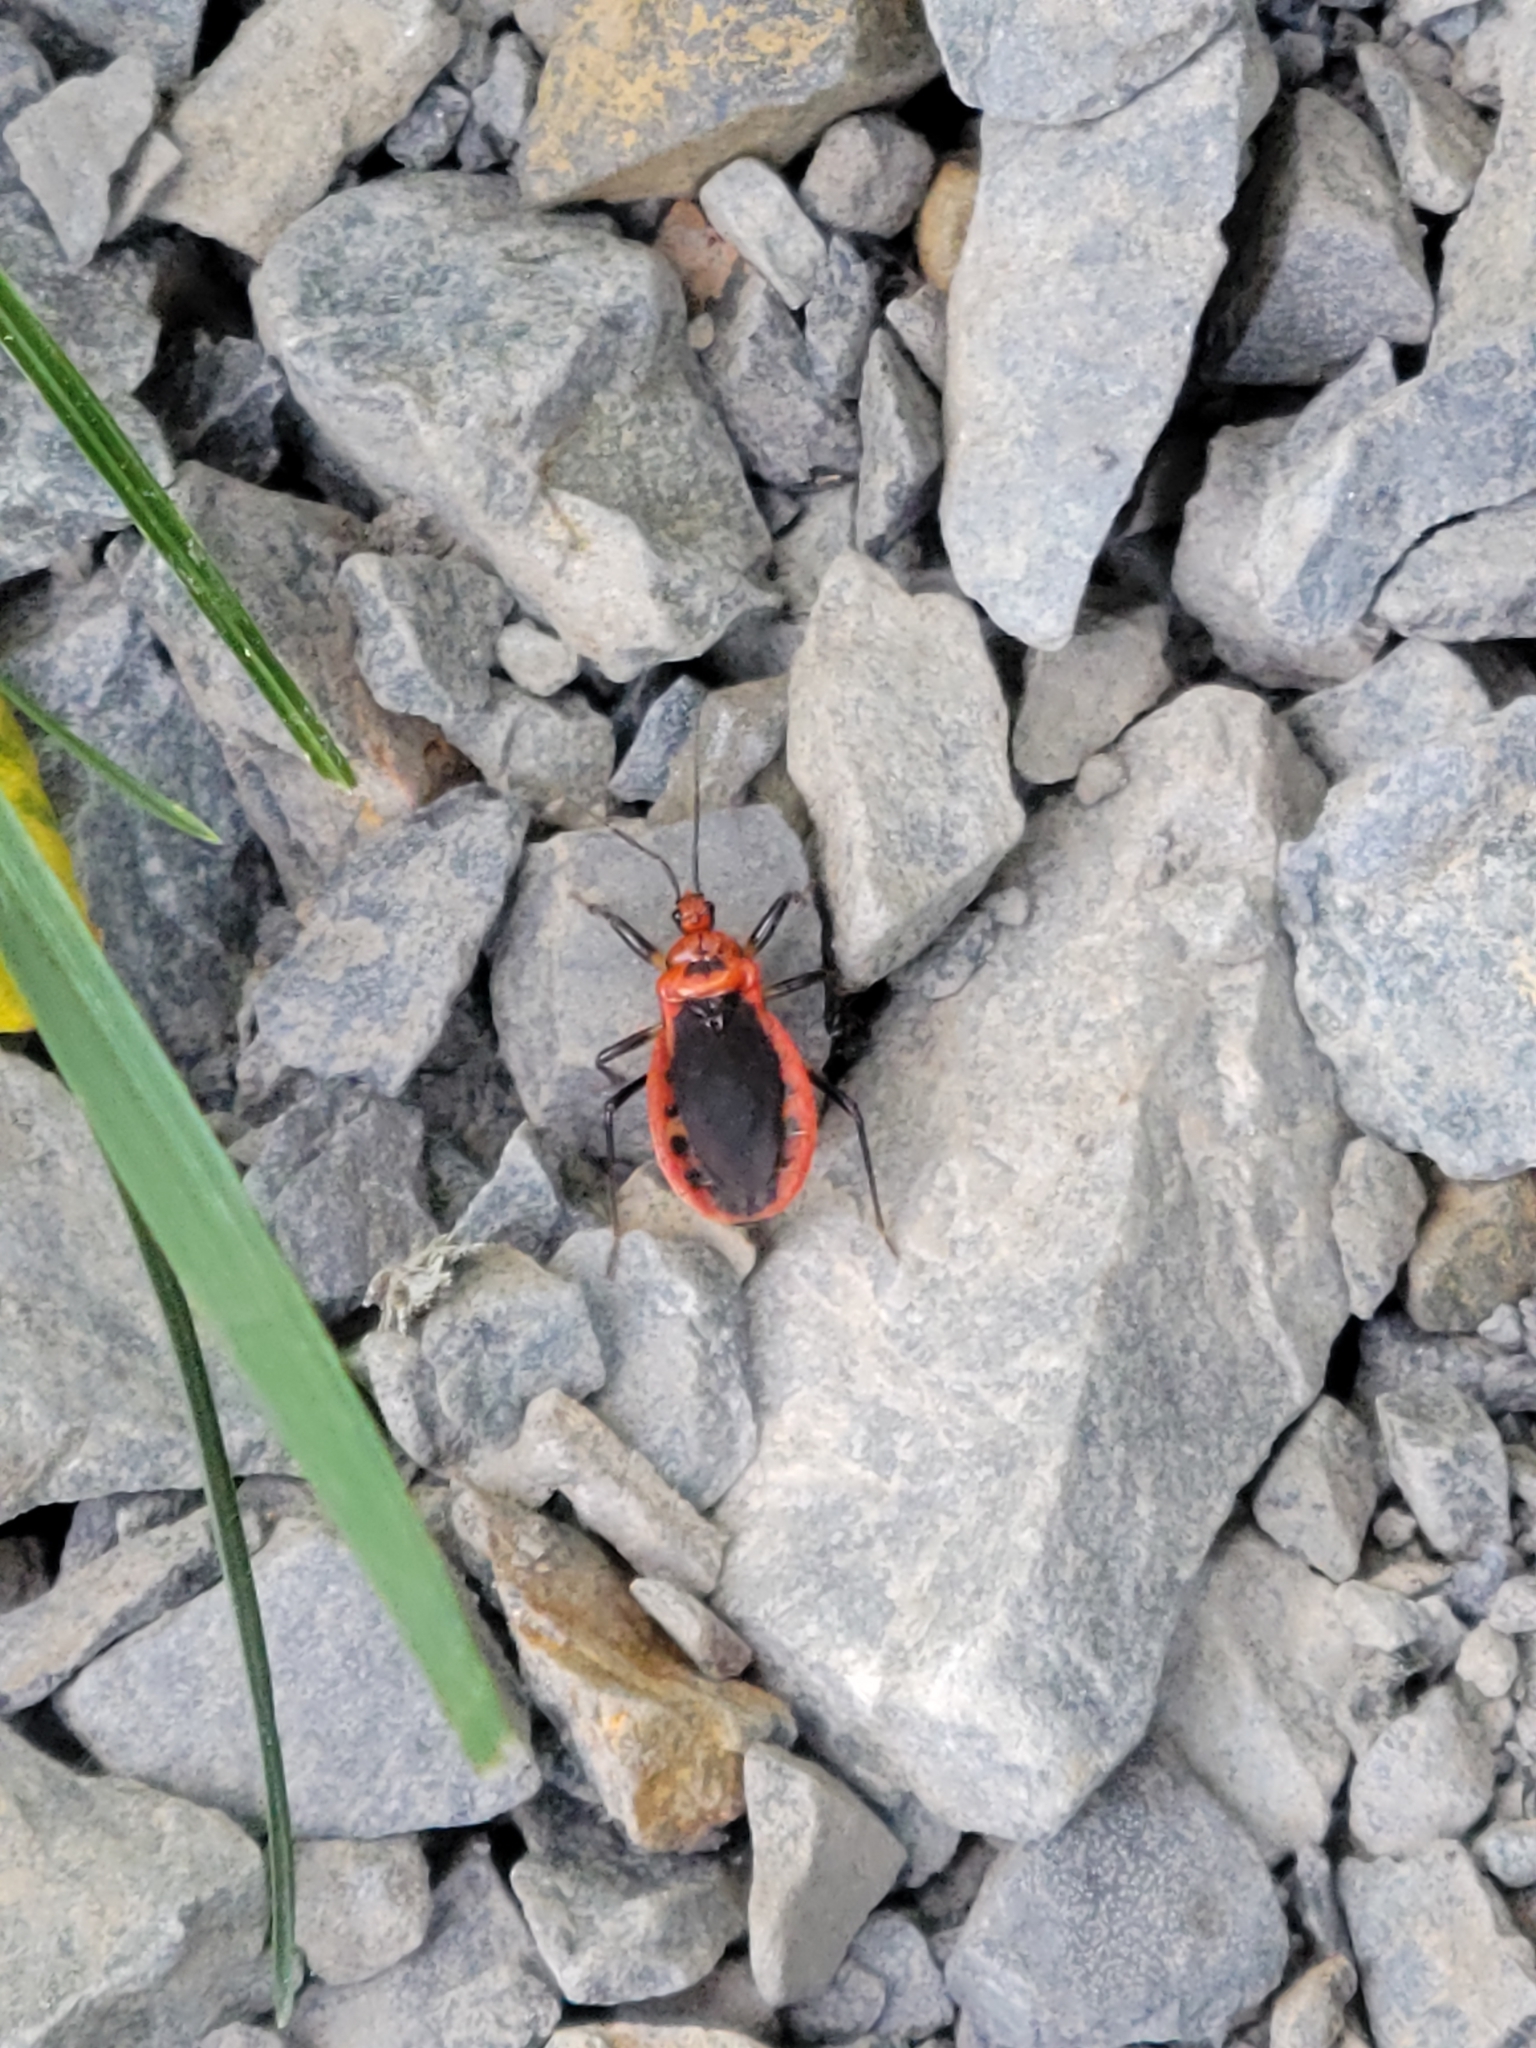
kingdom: Animalia
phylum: Arthropoda
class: Insecta
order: Hemiptera
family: Reduviidae
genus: Rhiginia
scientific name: Rhiginia cruciata
